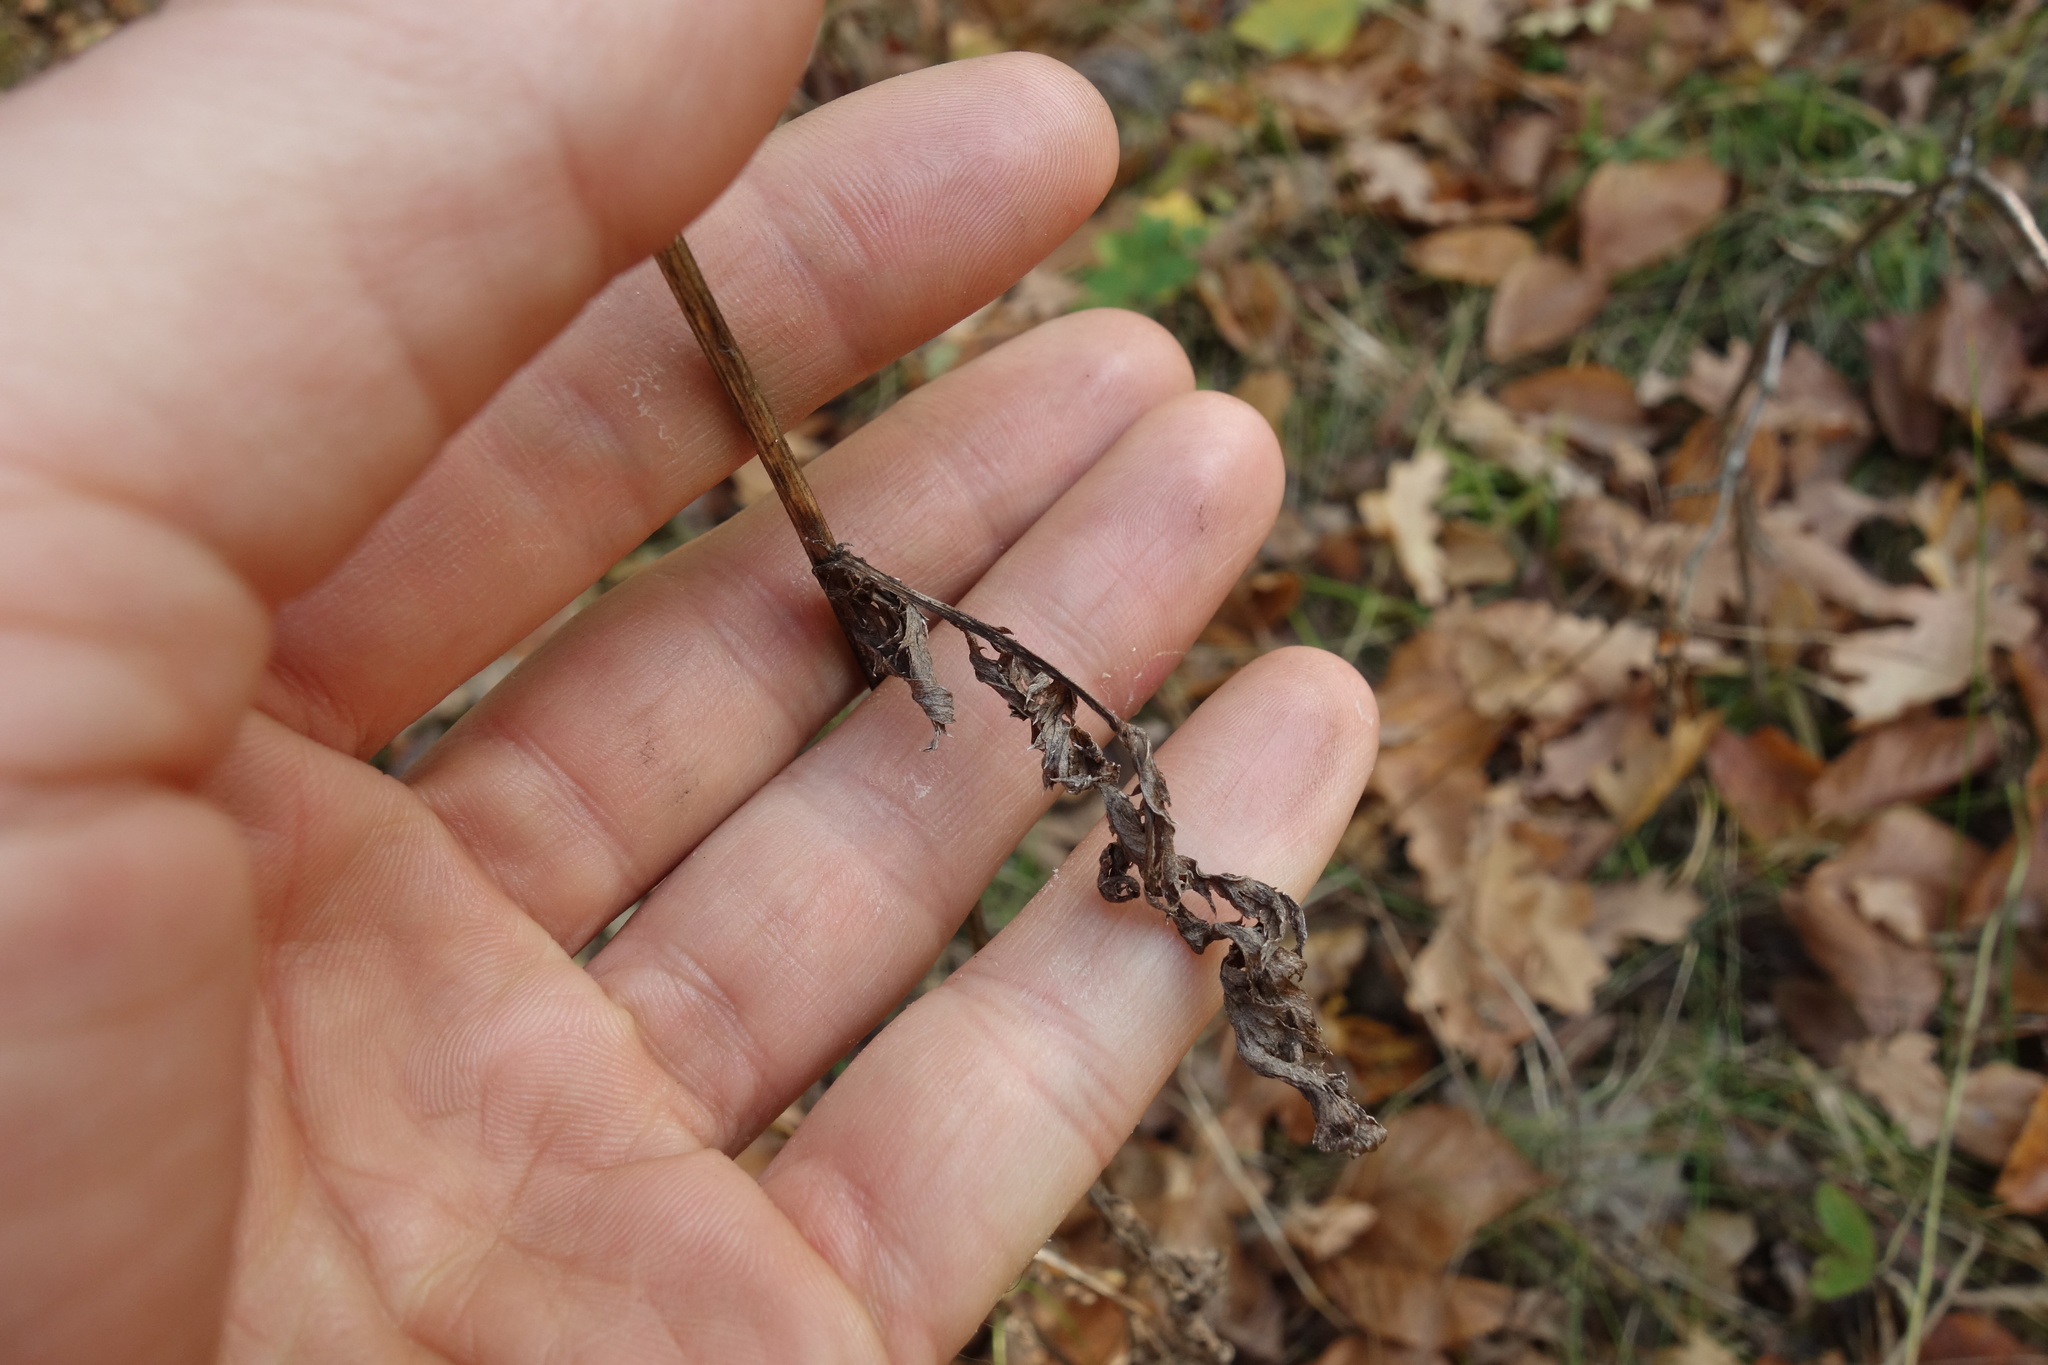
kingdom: Plantae
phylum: Tracheophyta
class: Magnoliopsida
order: Asterales
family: Asteraceae
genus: Tanacetum
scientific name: Tanacetum corymbosum
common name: Scentless feverfew
